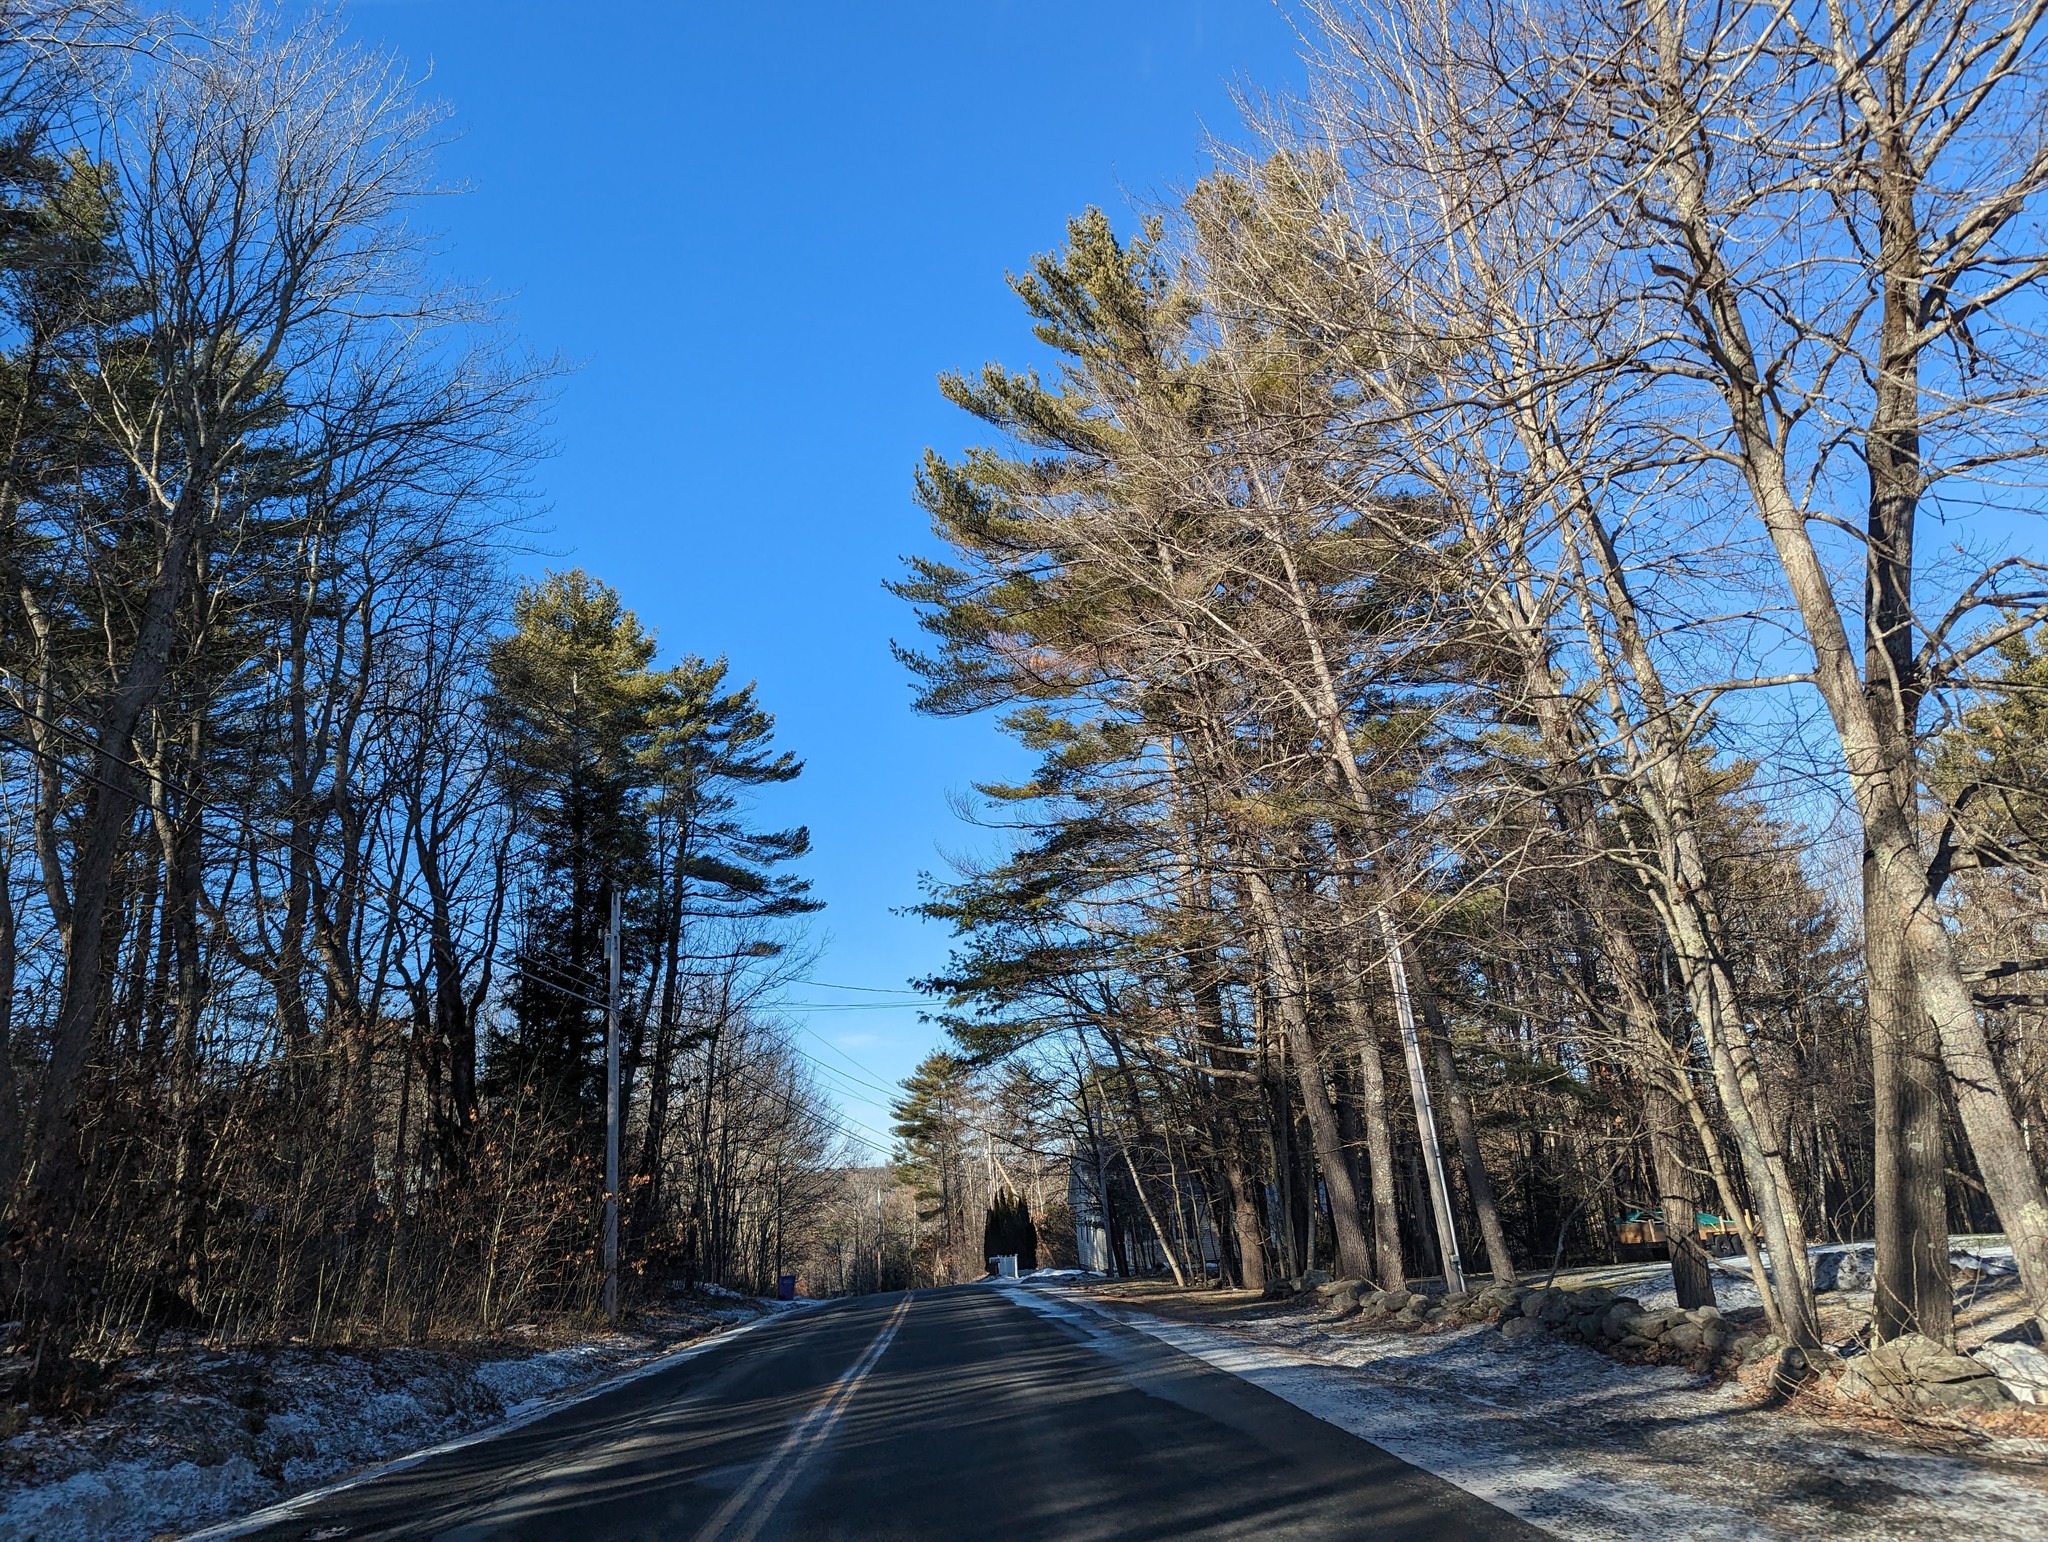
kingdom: Plantae
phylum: Tracheophyta
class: Pinopsida
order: Pinales
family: Pinaceae
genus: Pinus
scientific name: Pinus strobus
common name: Weymouth pine
